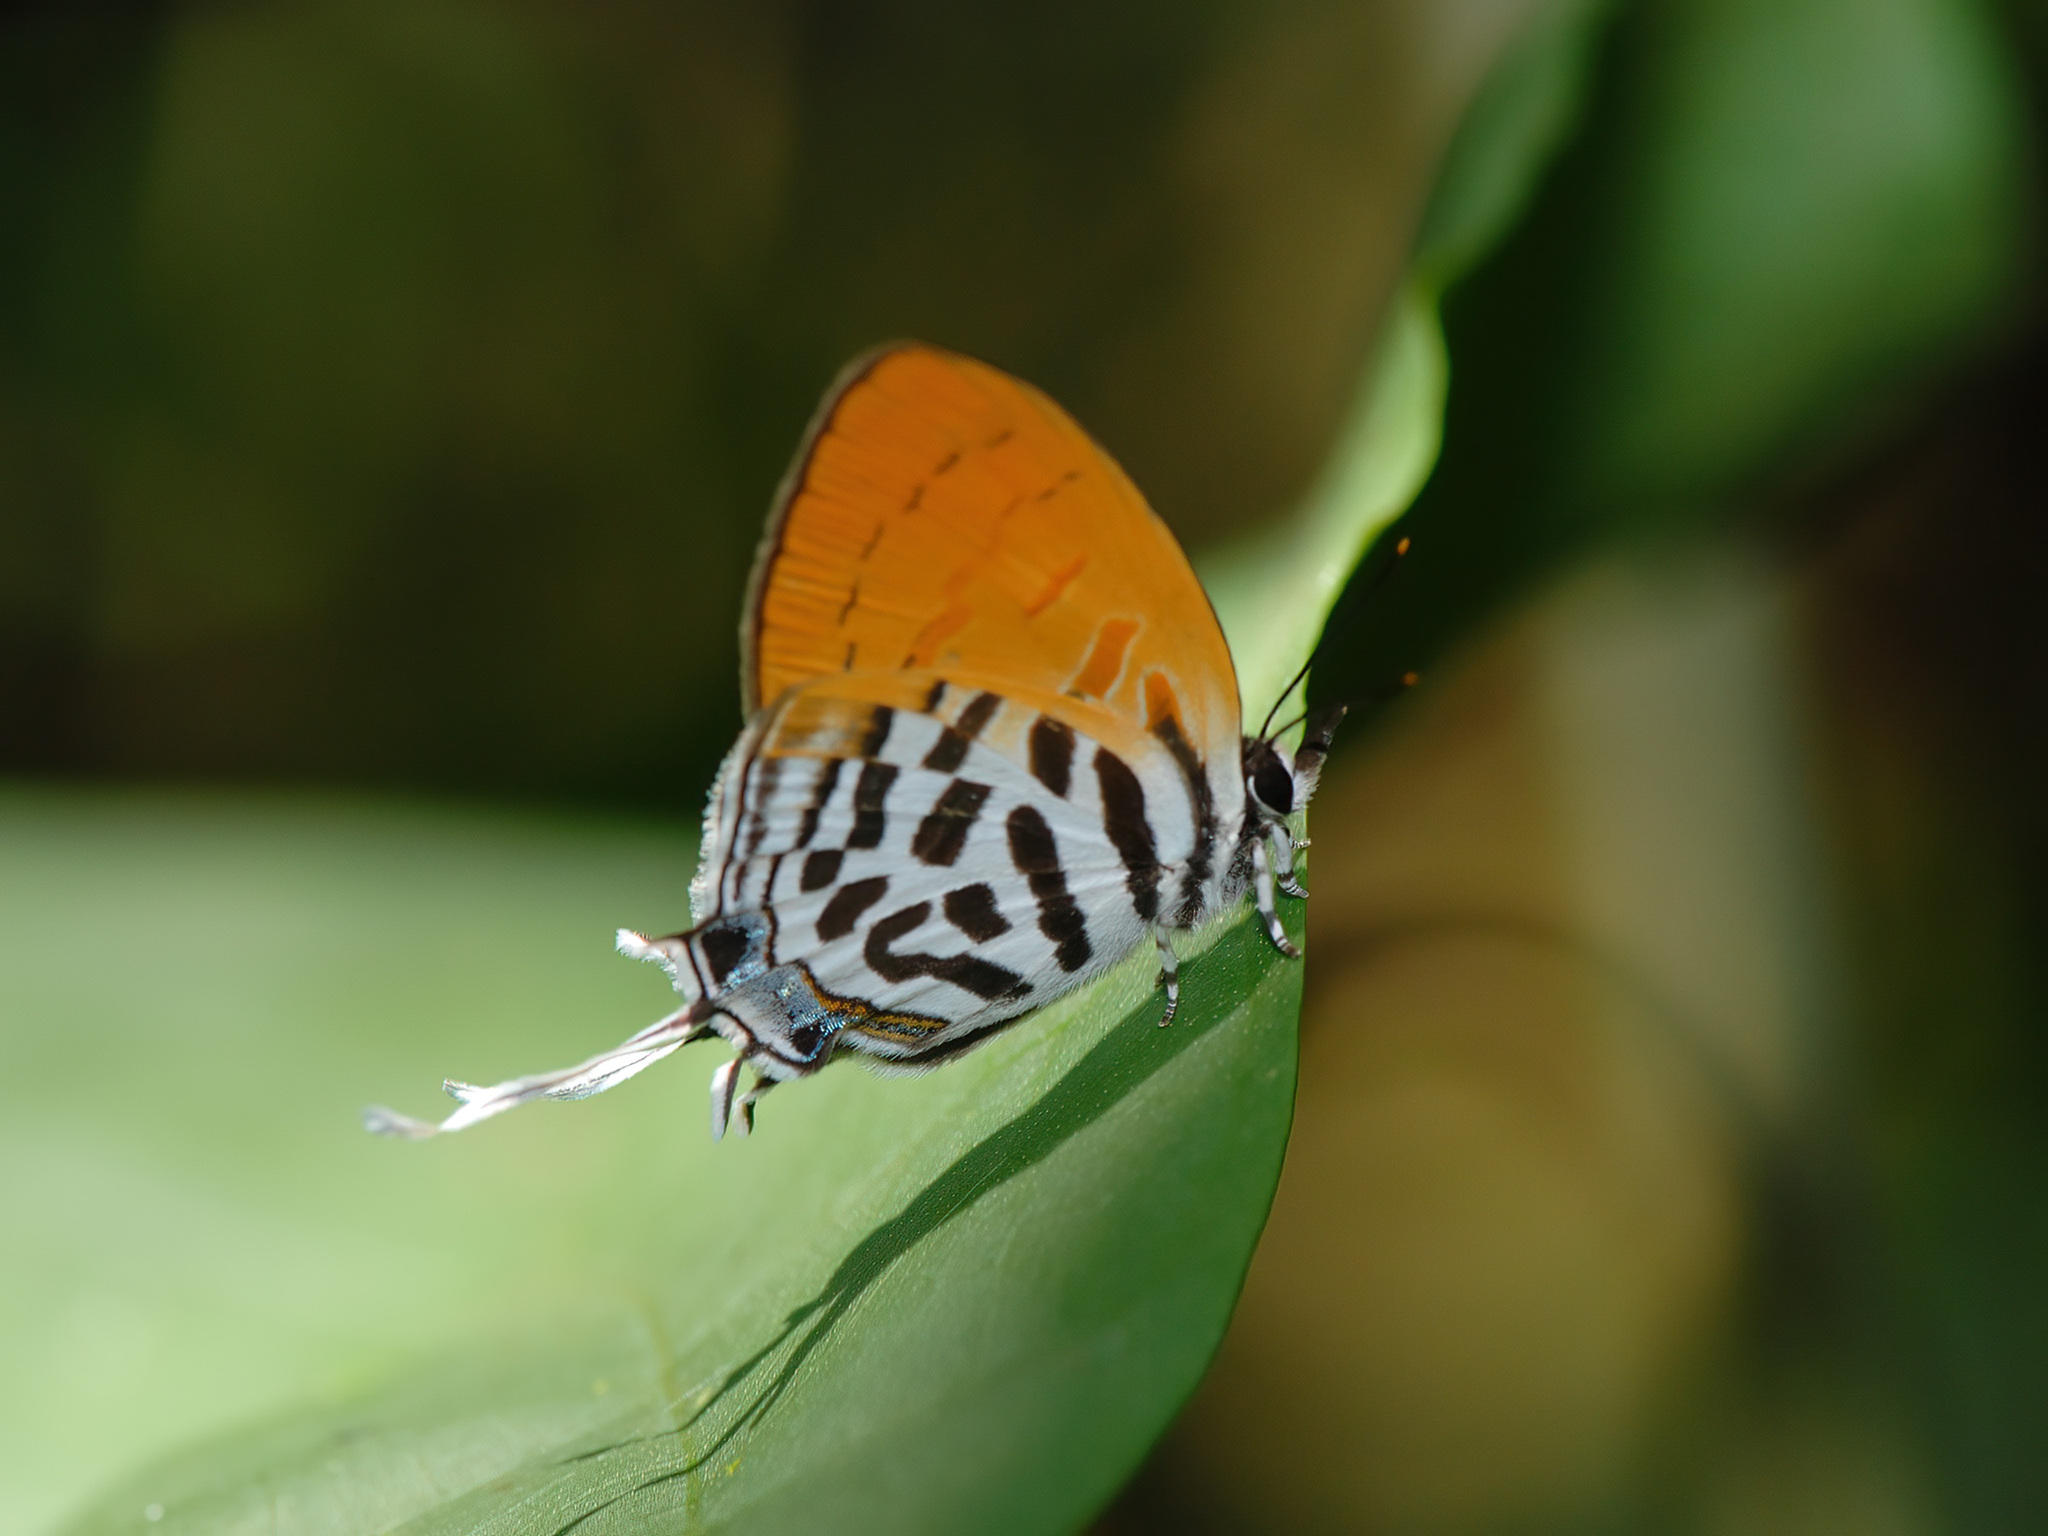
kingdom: Animalia
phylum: Arthropoda
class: Insecta
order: Lepidoptera
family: Lycaenidae
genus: Drupadia
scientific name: Drupadia ravindra
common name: Common posy
